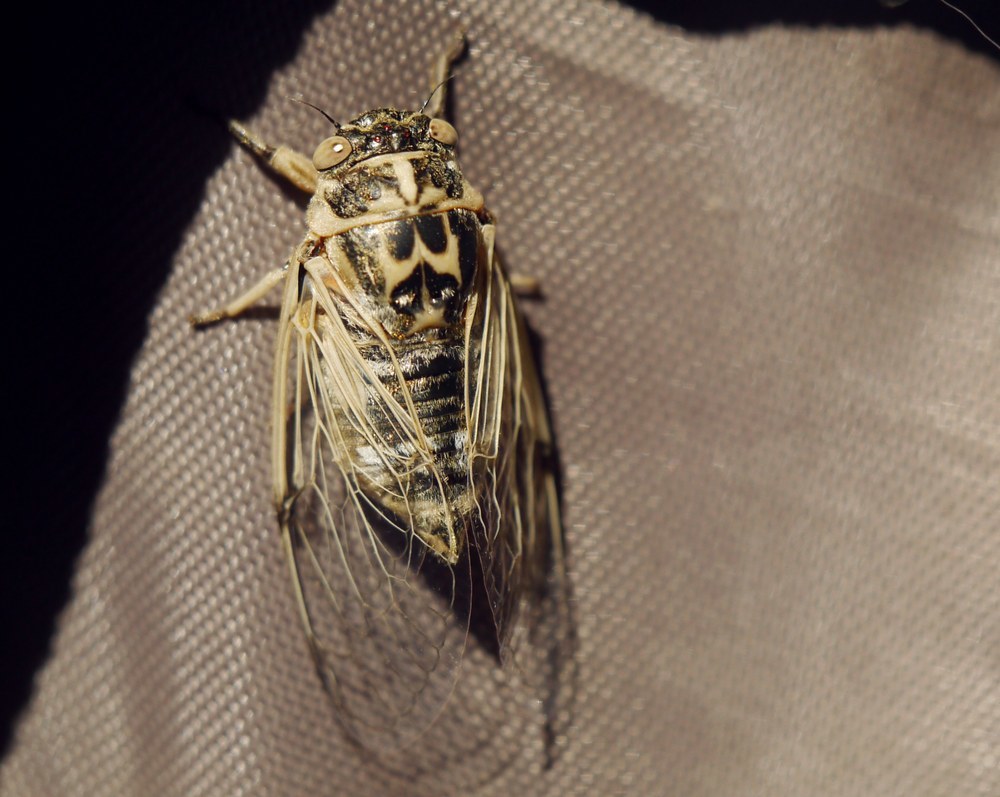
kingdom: Animalia
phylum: Arthropoda
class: Insecta
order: Hemiptera
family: Cicadidae
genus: Cicadatra
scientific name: Cicadatra platyptera
